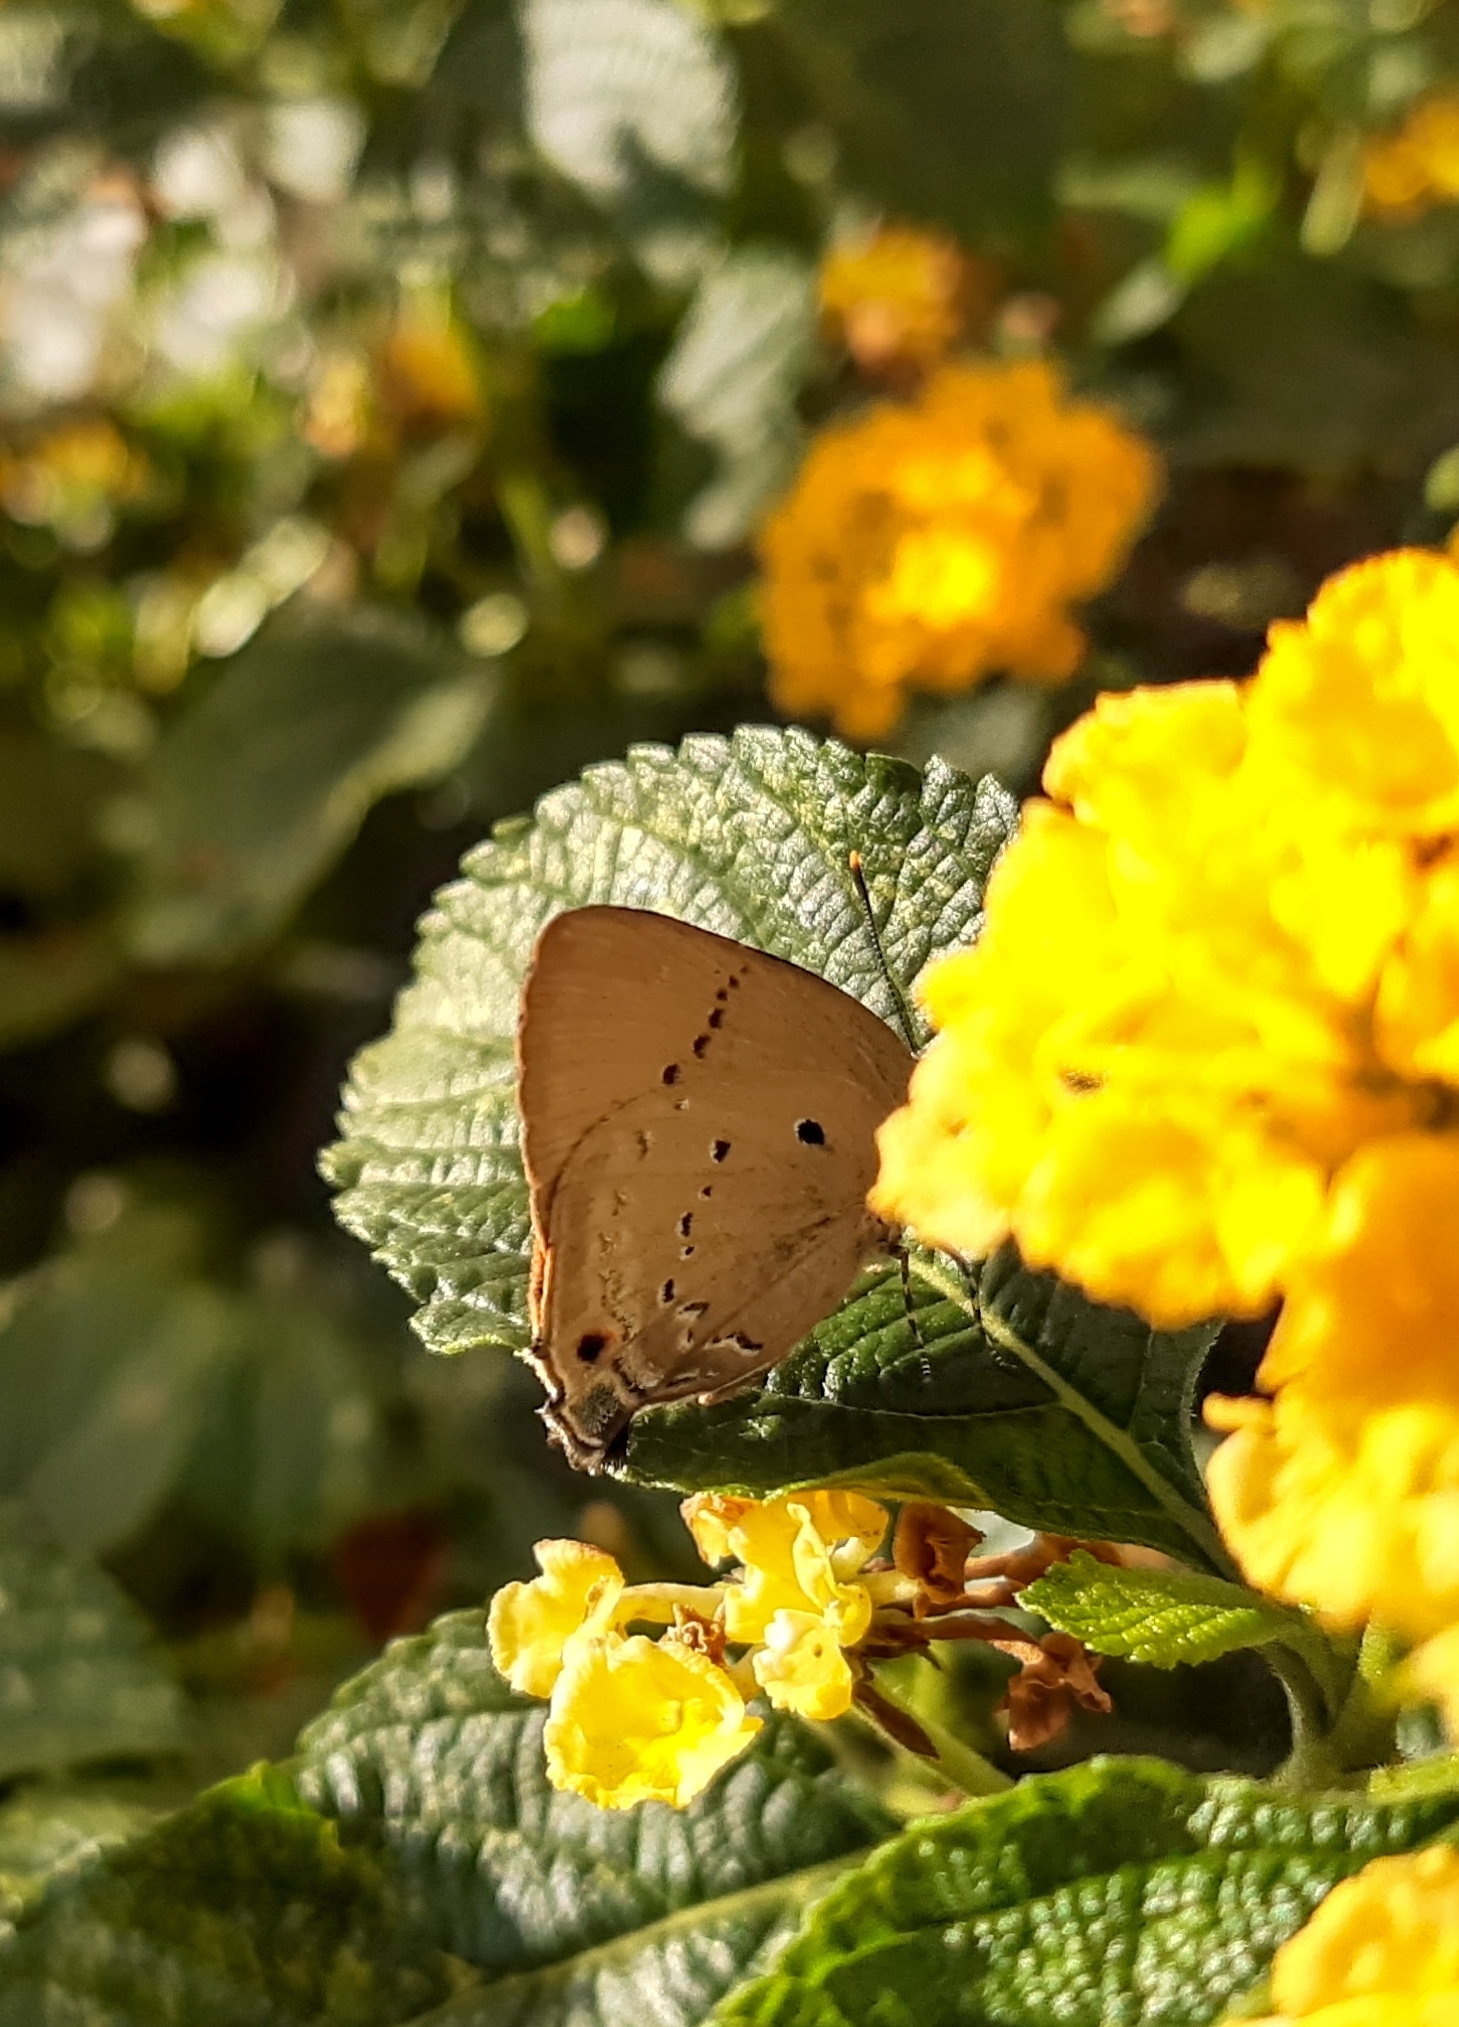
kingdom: Animalia
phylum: Arthropoda
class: Insecta
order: Lepidoptera
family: Lycaenidae
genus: Parrhasius
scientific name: Parrhasius polibetes
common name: Black-spot hairstreak
